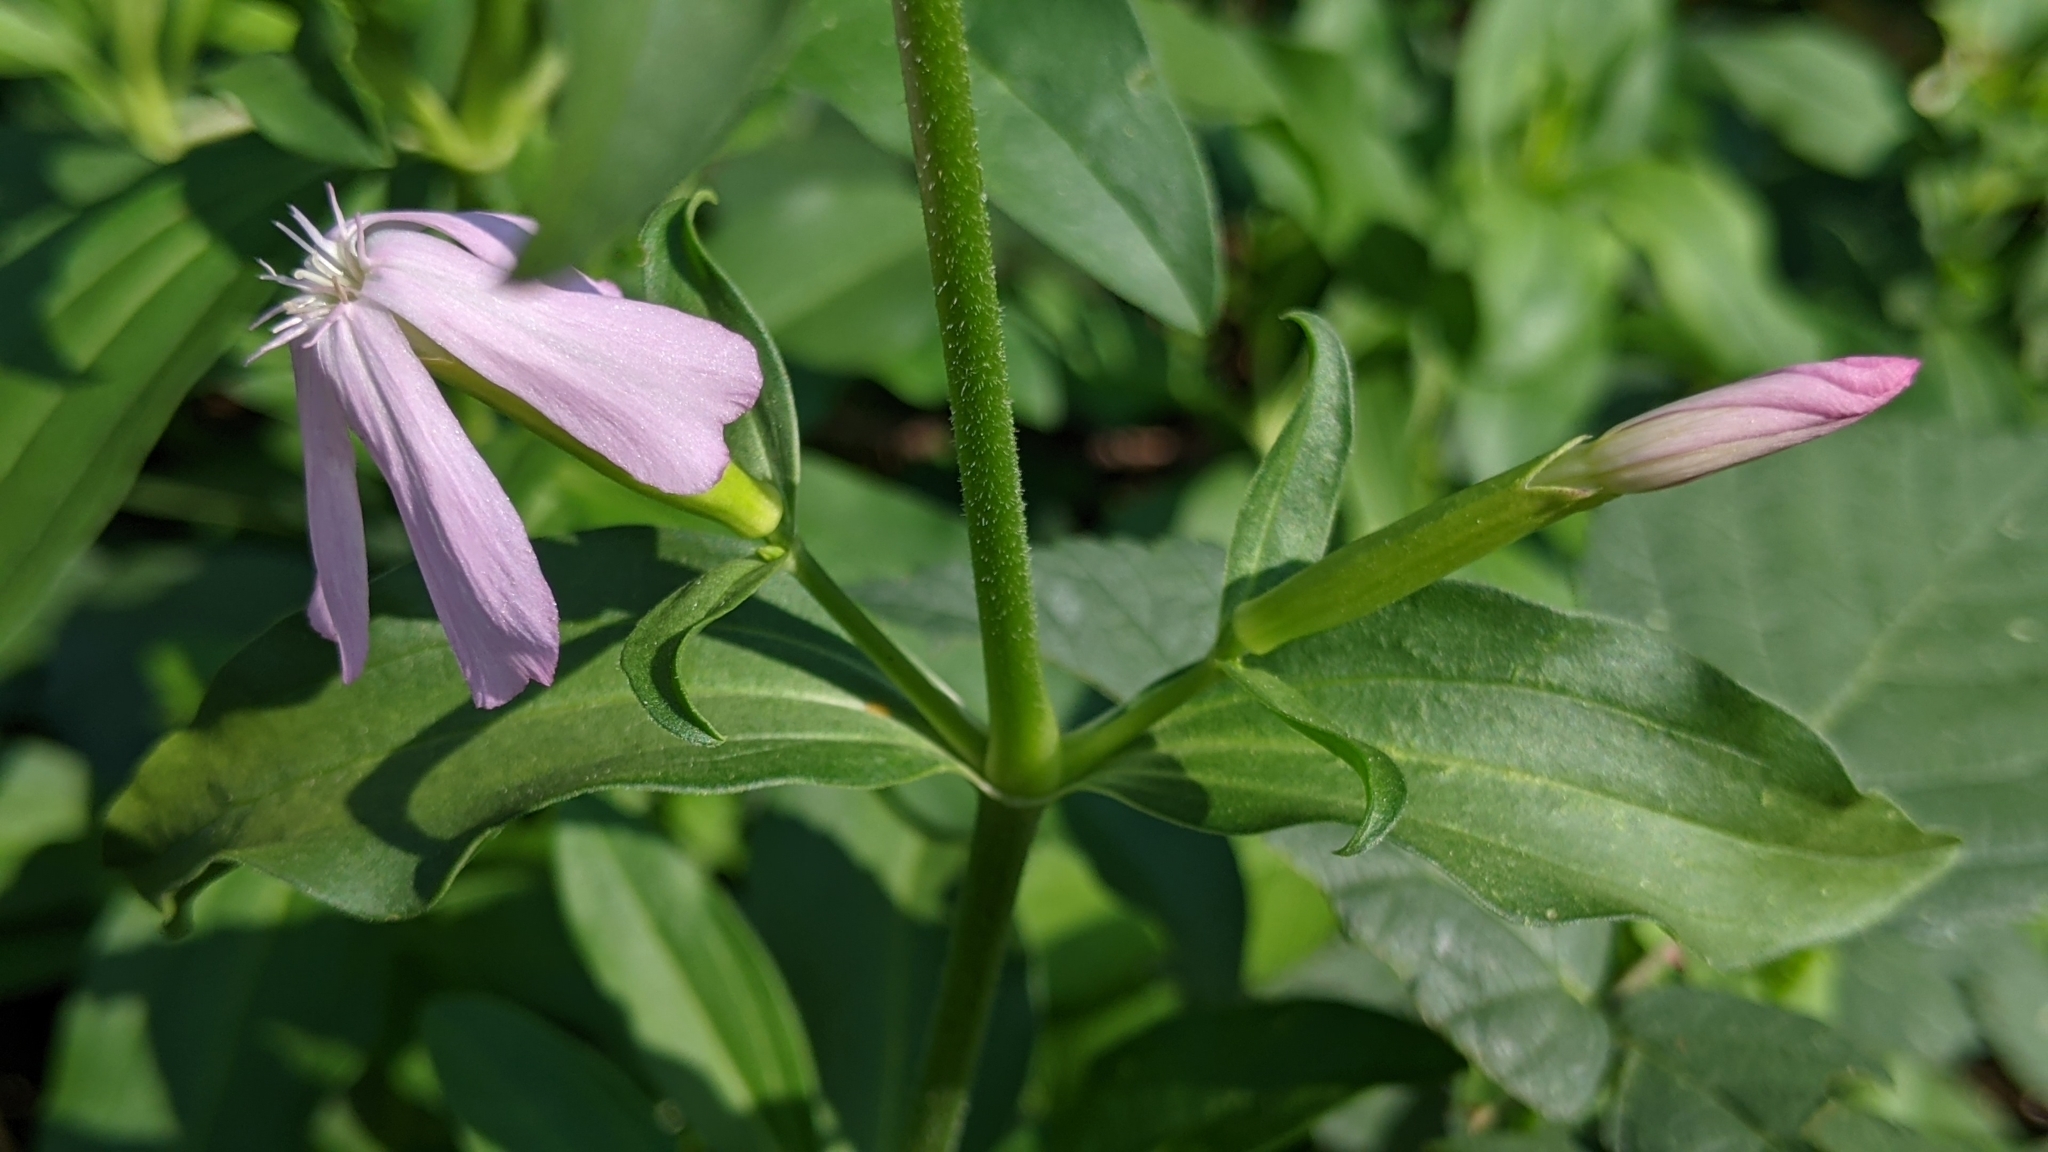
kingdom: Plantae
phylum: Tracheophyta
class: Magnoliopsida
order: Caryophyllales
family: Caryophyllaceae
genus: Saponaria
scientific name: Saponaria officinalis
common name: Soapwort
